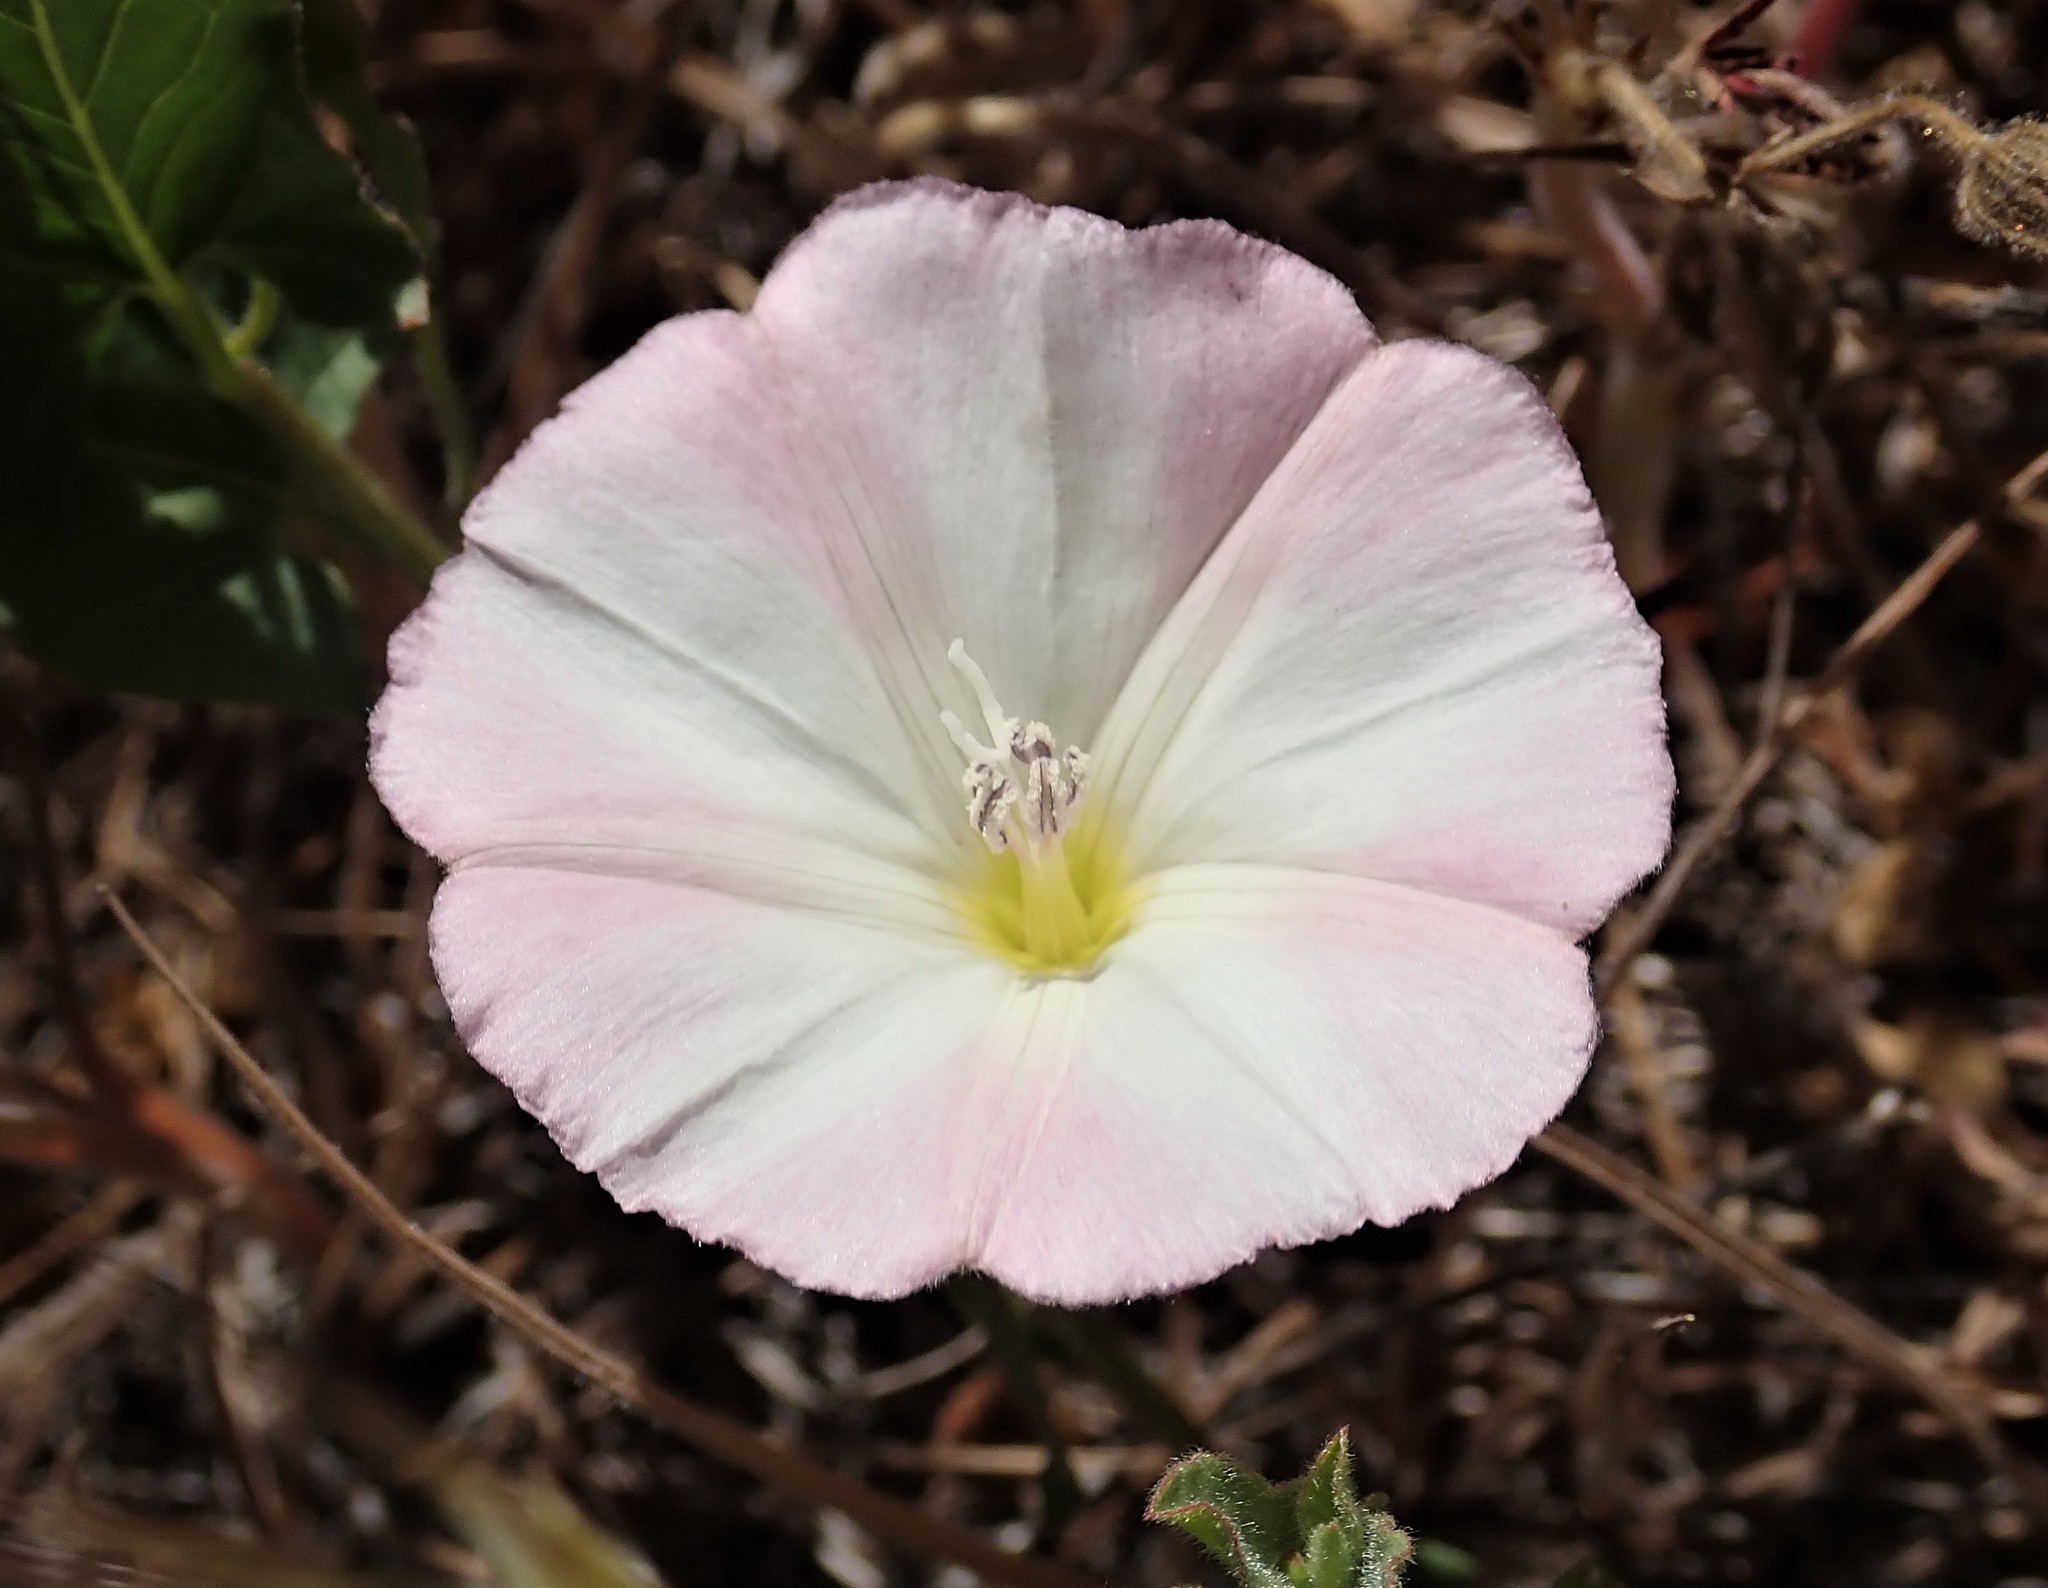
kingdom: Plantae
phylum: Tracheophyta
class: Magnoliopsida
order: Solanales
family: Convolvulaceae
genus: Convolvulus
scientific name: Convolvulus arvensis
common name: Field bindweed
